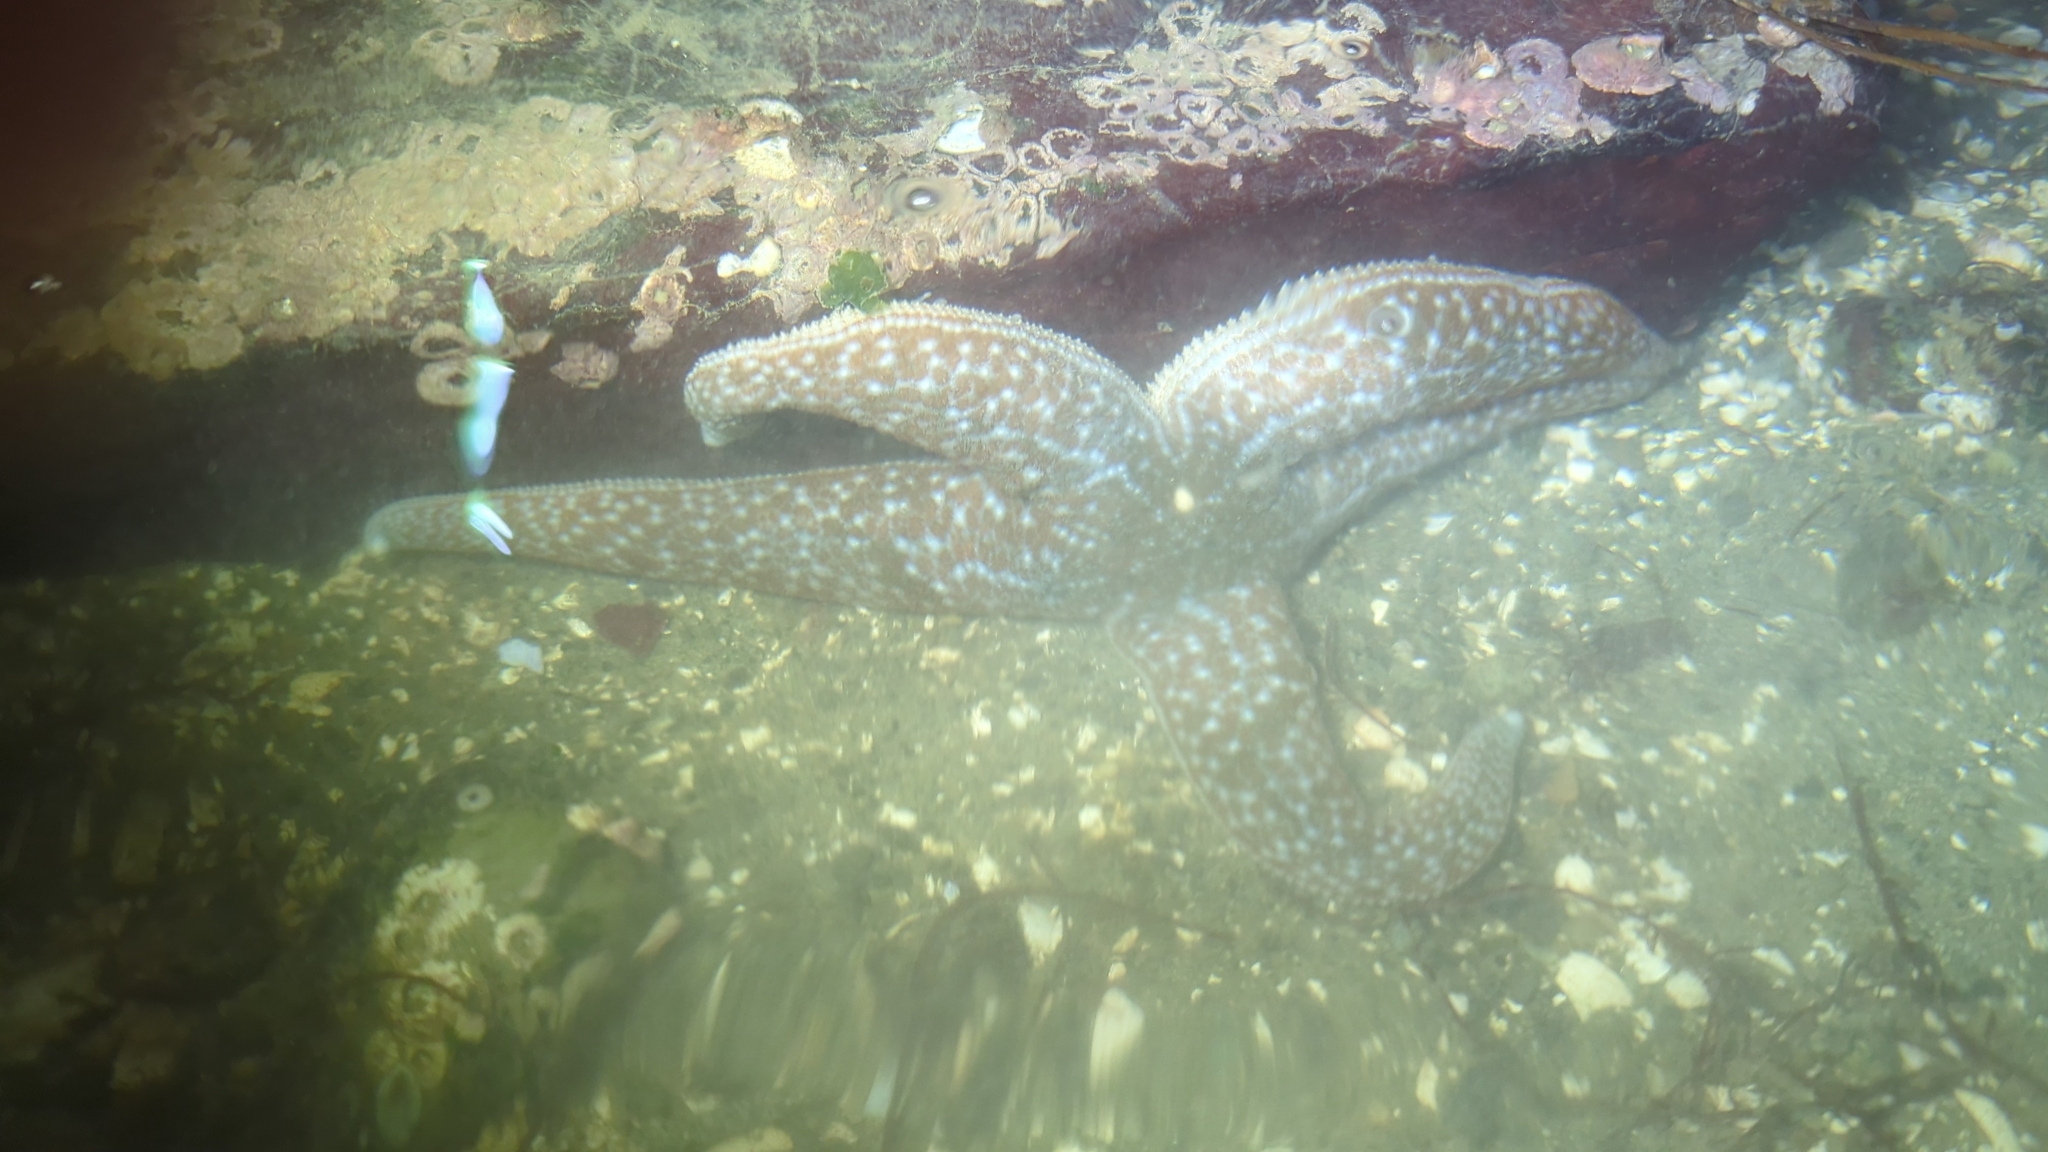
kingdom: Animalia
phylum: Echinodermata
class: Asteroidea
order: Forcipulatida
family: Asteriidae
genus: Evasterias
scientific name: Evasterias troschelii
